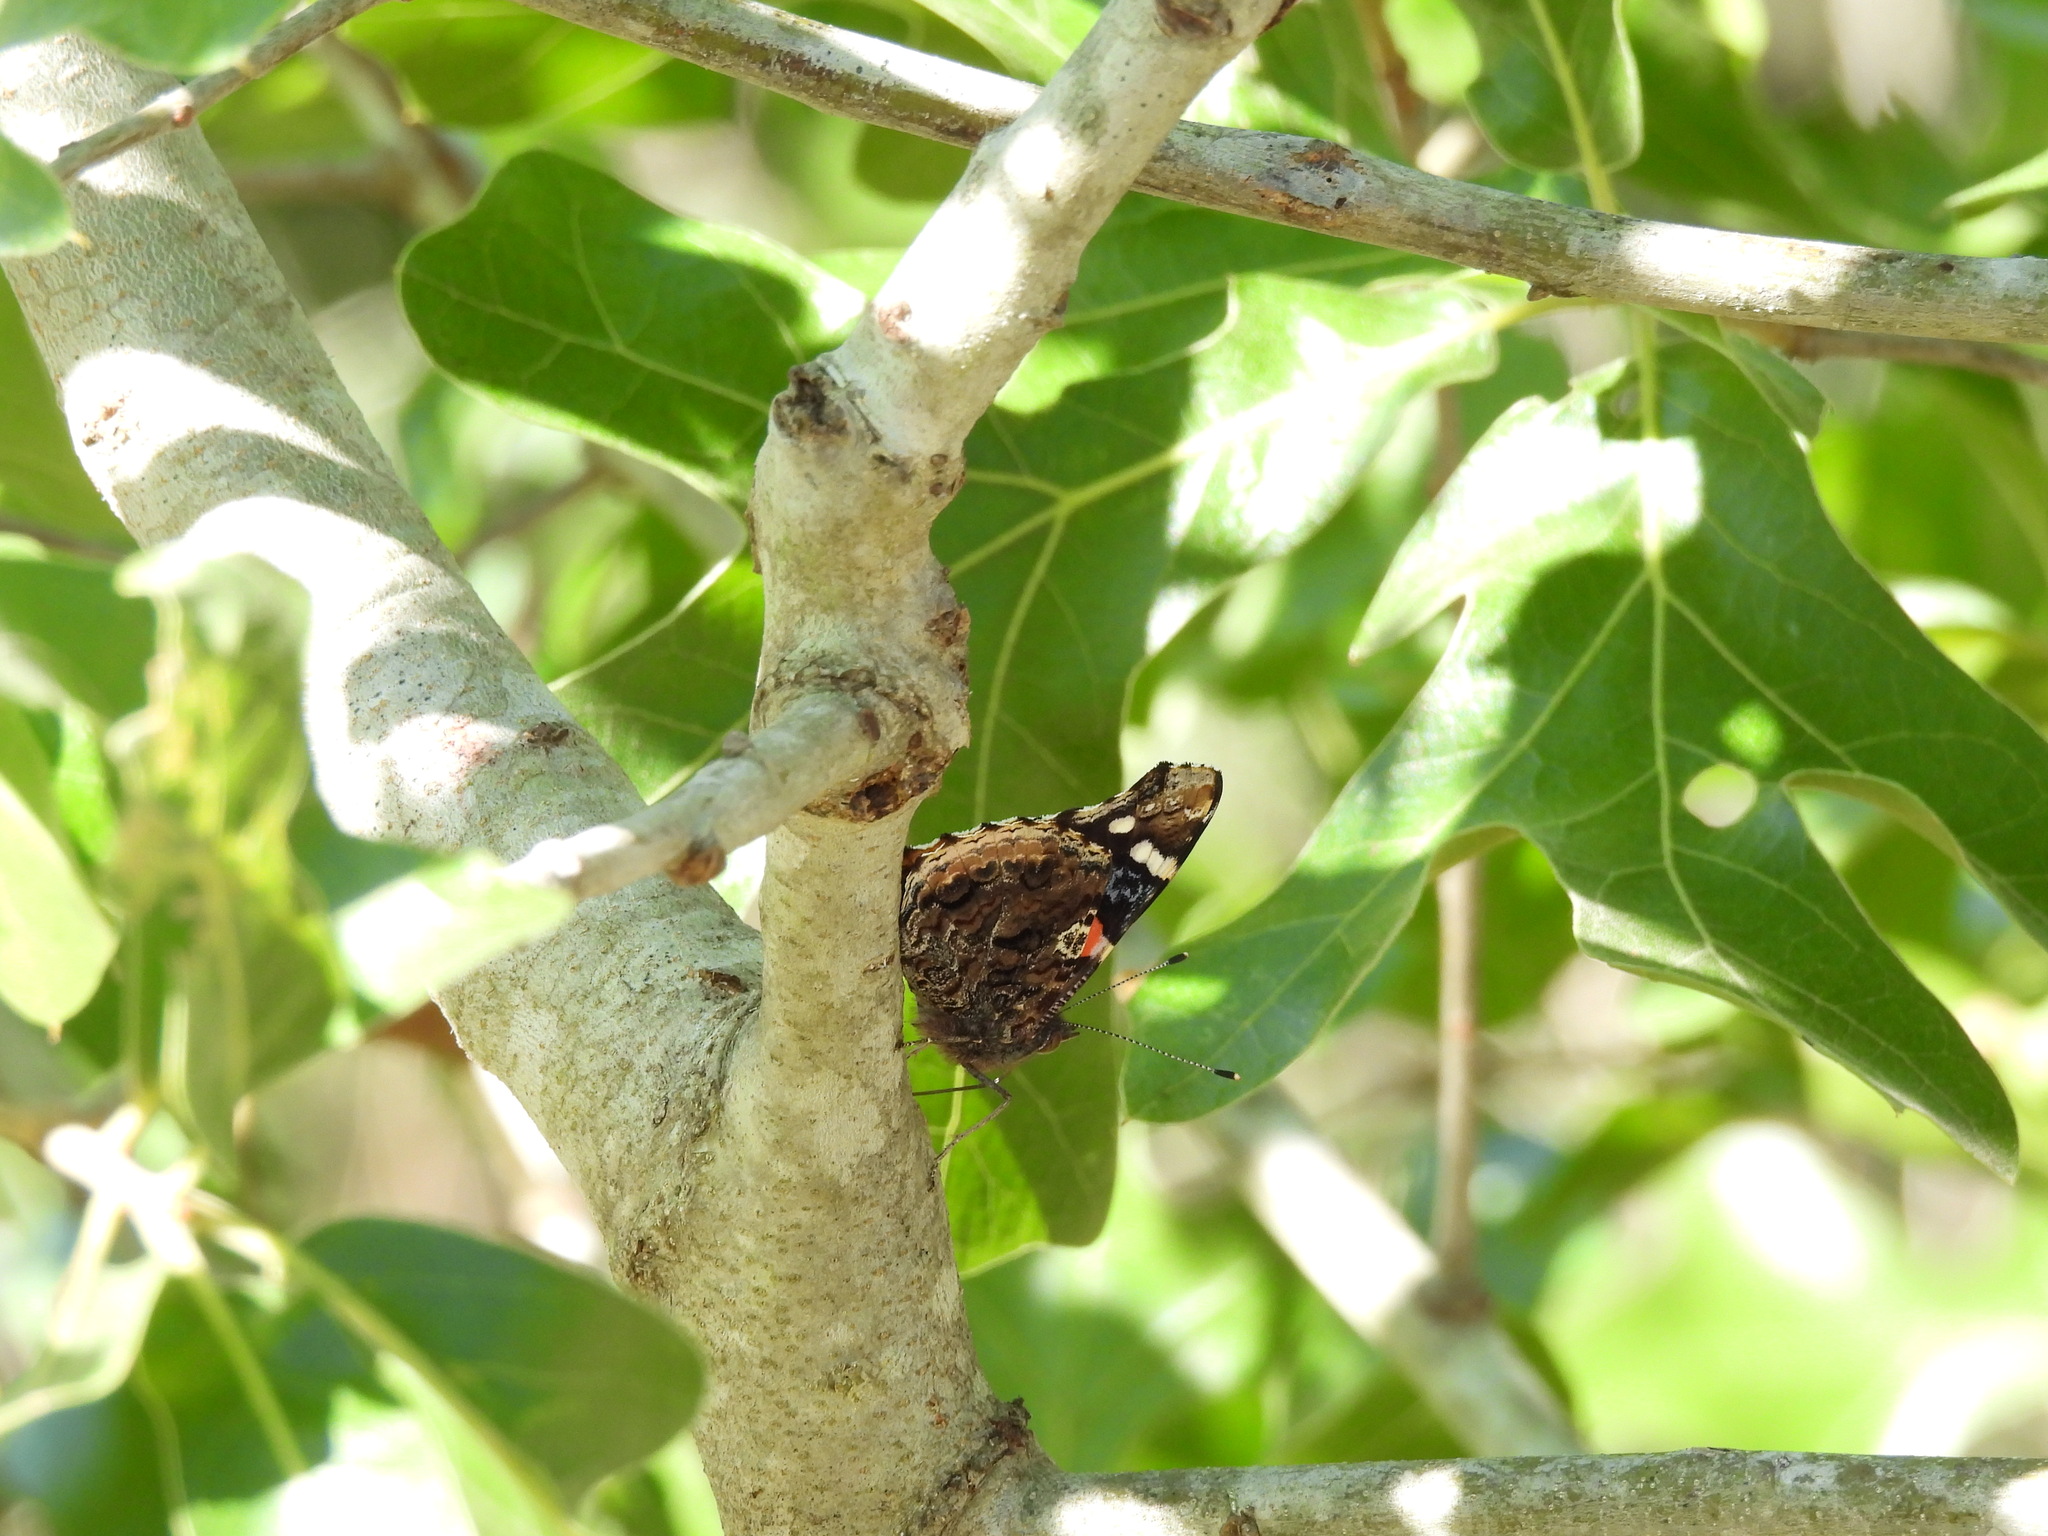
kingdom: Animalia
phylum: Arthropoda
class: Insecta
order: Lepidoptera
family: Nymphalidae
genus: Vanessa
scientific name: Vanessa atalanta
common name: Red admiral
